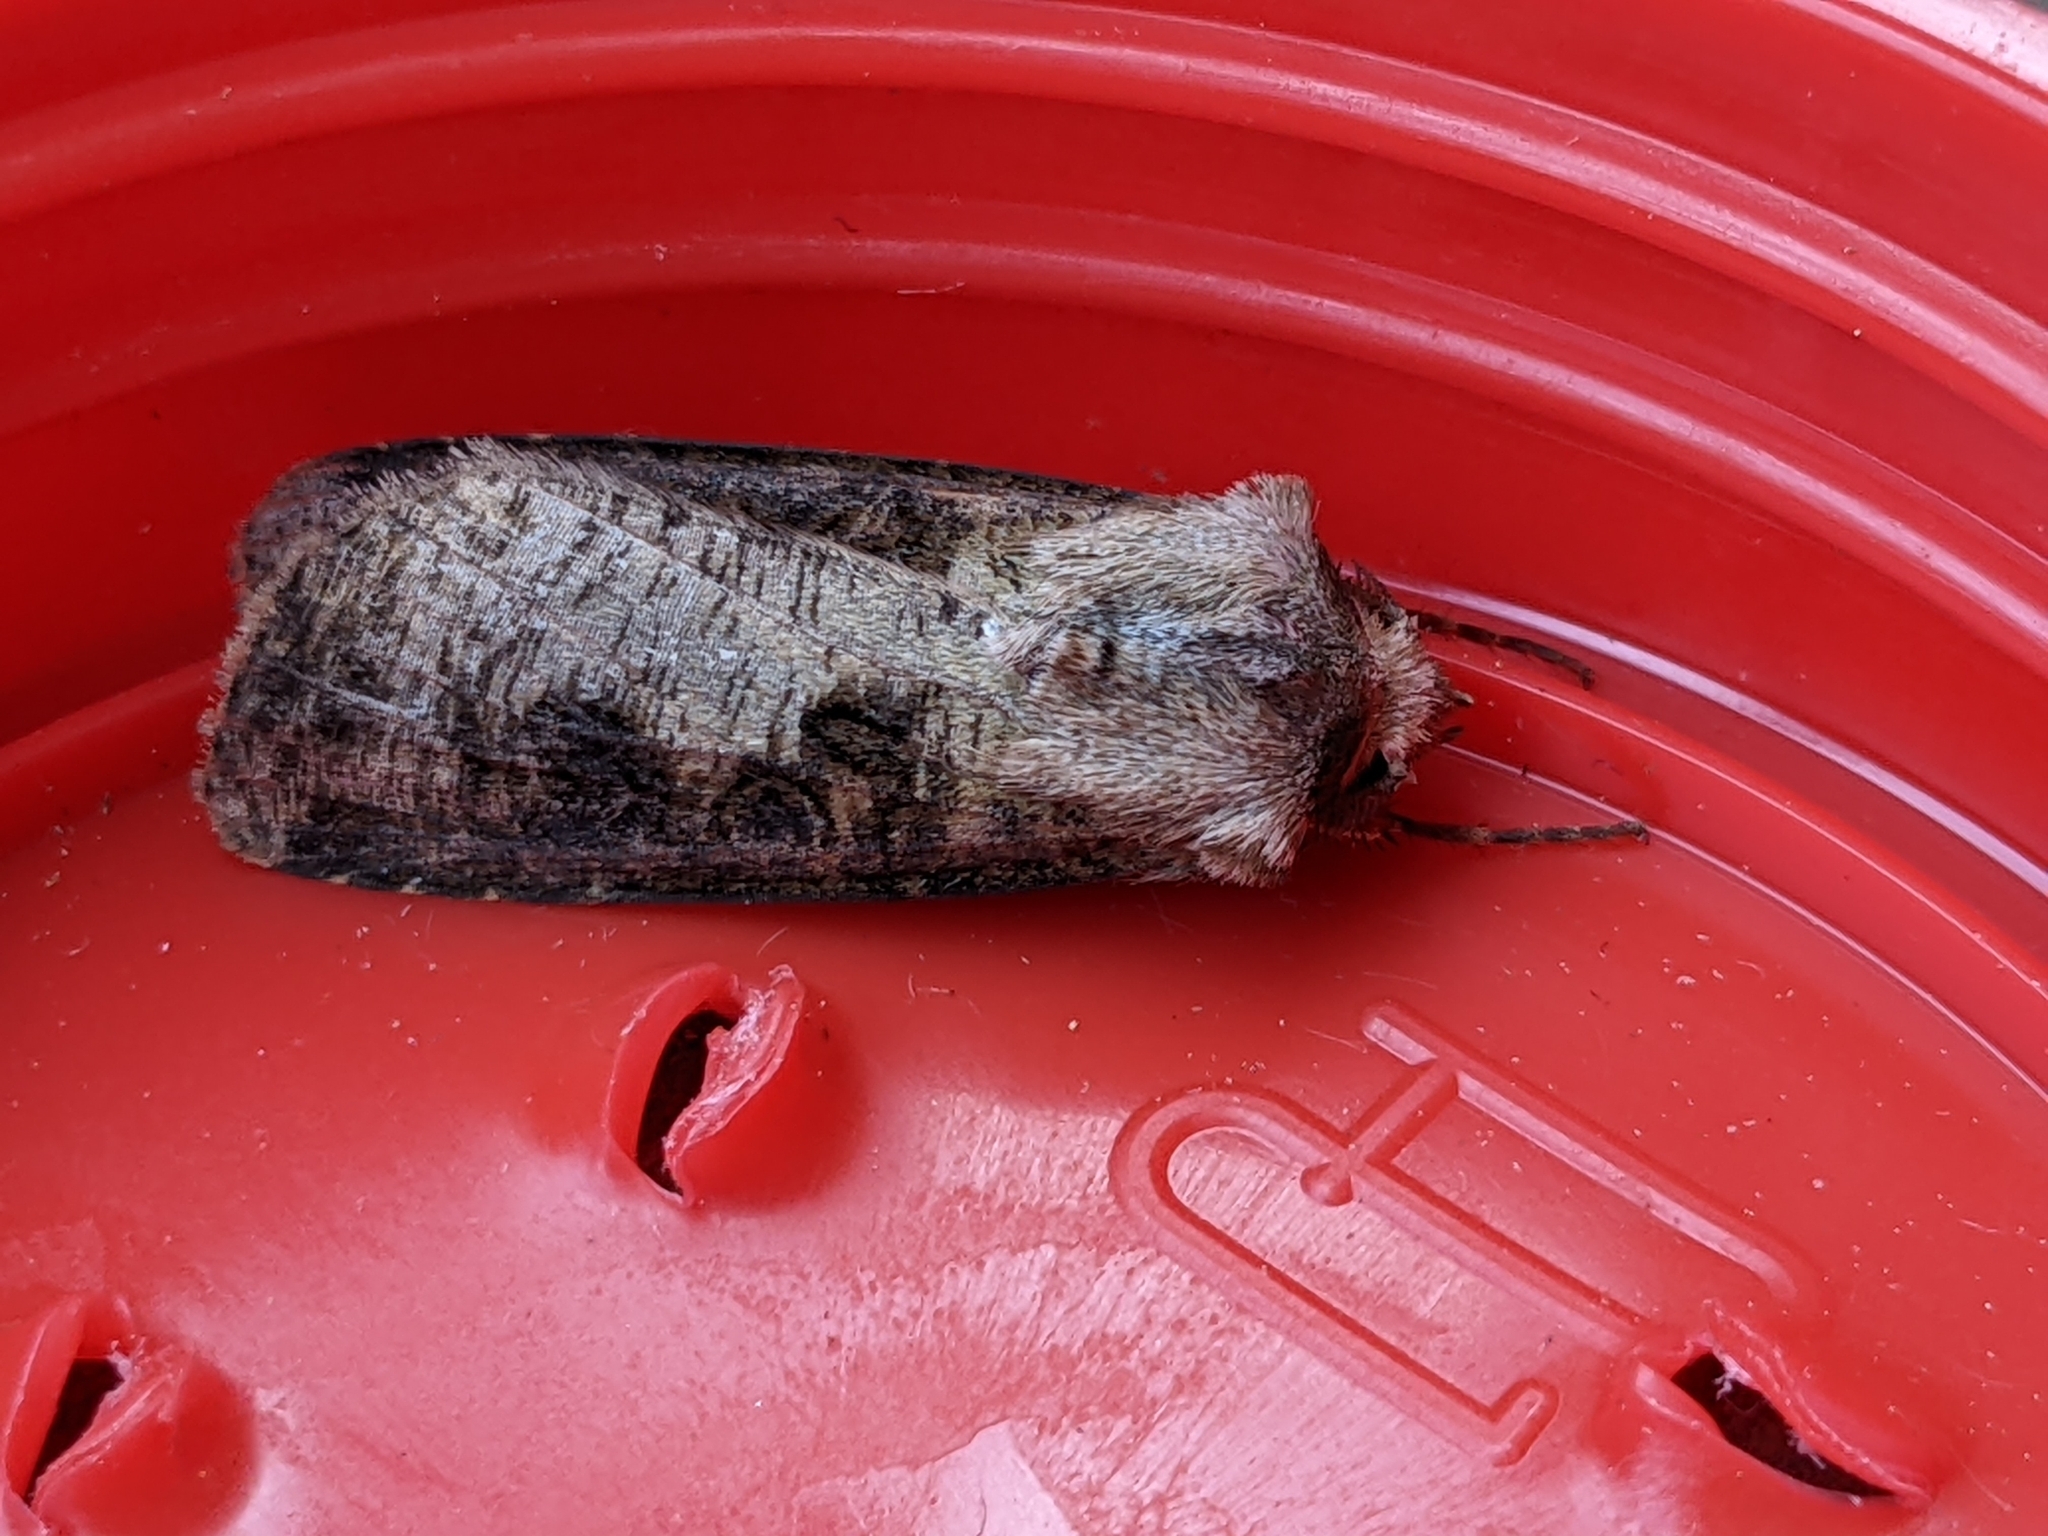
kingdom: Animalia
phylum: Arthropoda
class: Insecta
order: Lepidoptera
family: Noctuidae
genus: Agrotis
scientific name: Agrotis clavis
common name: Heart and club
